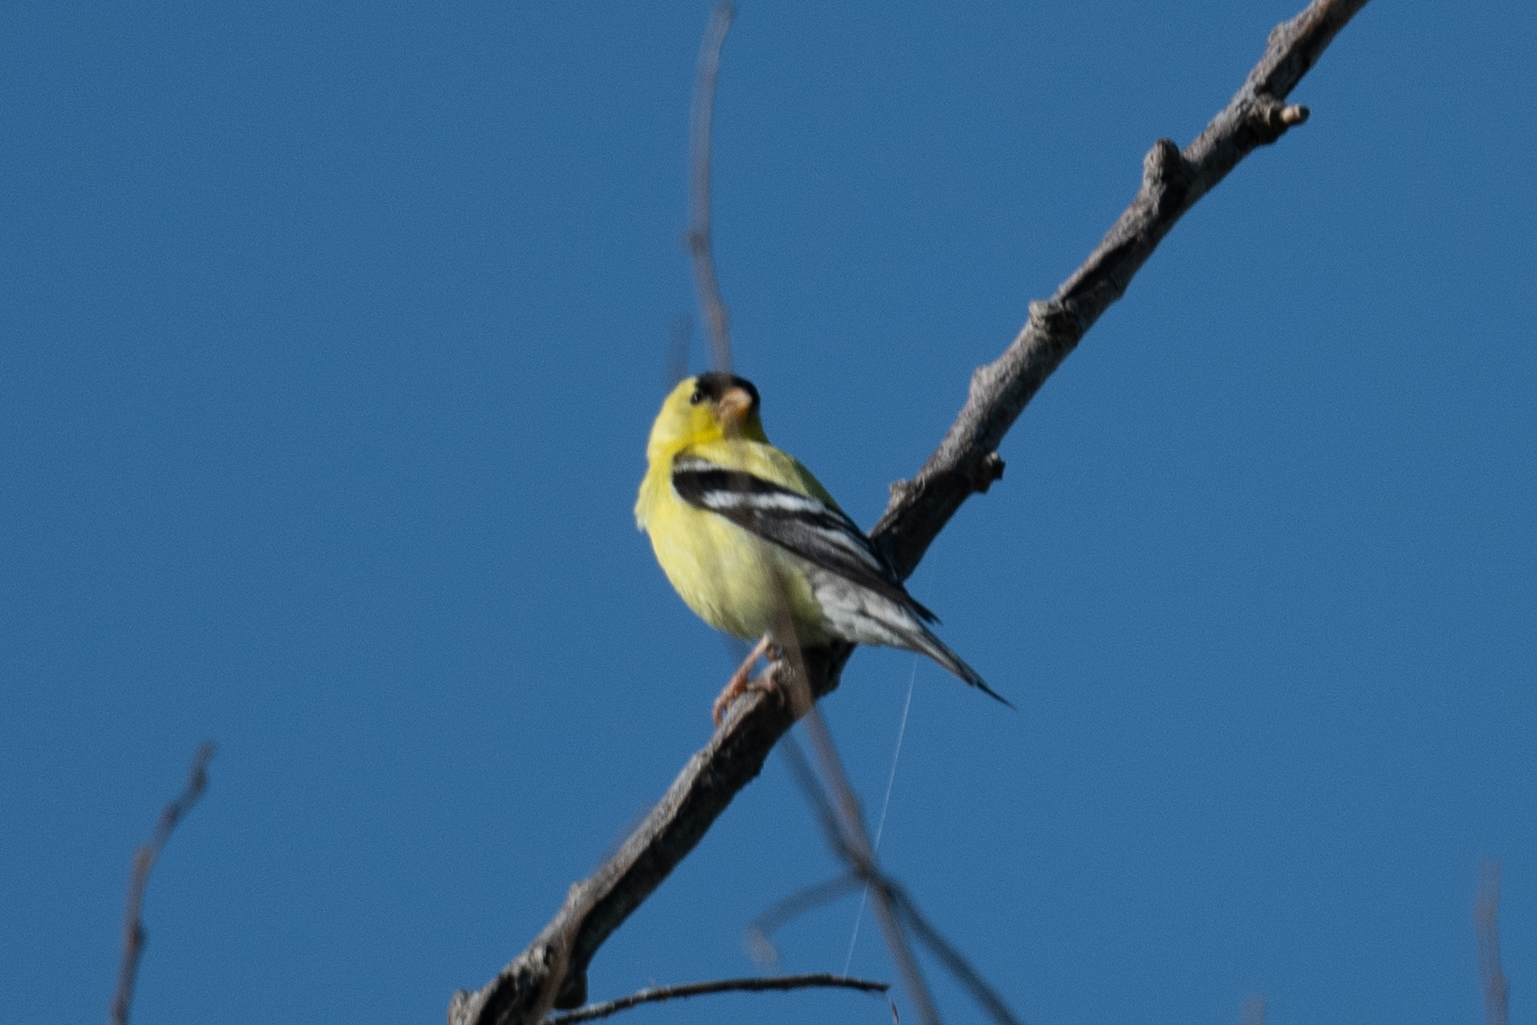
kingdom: Animalia
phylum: Chordata
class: Aves
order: Passeriformes
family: Fringillidae
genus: Spinus
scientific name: Spinus tristis
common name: American goldfinch
